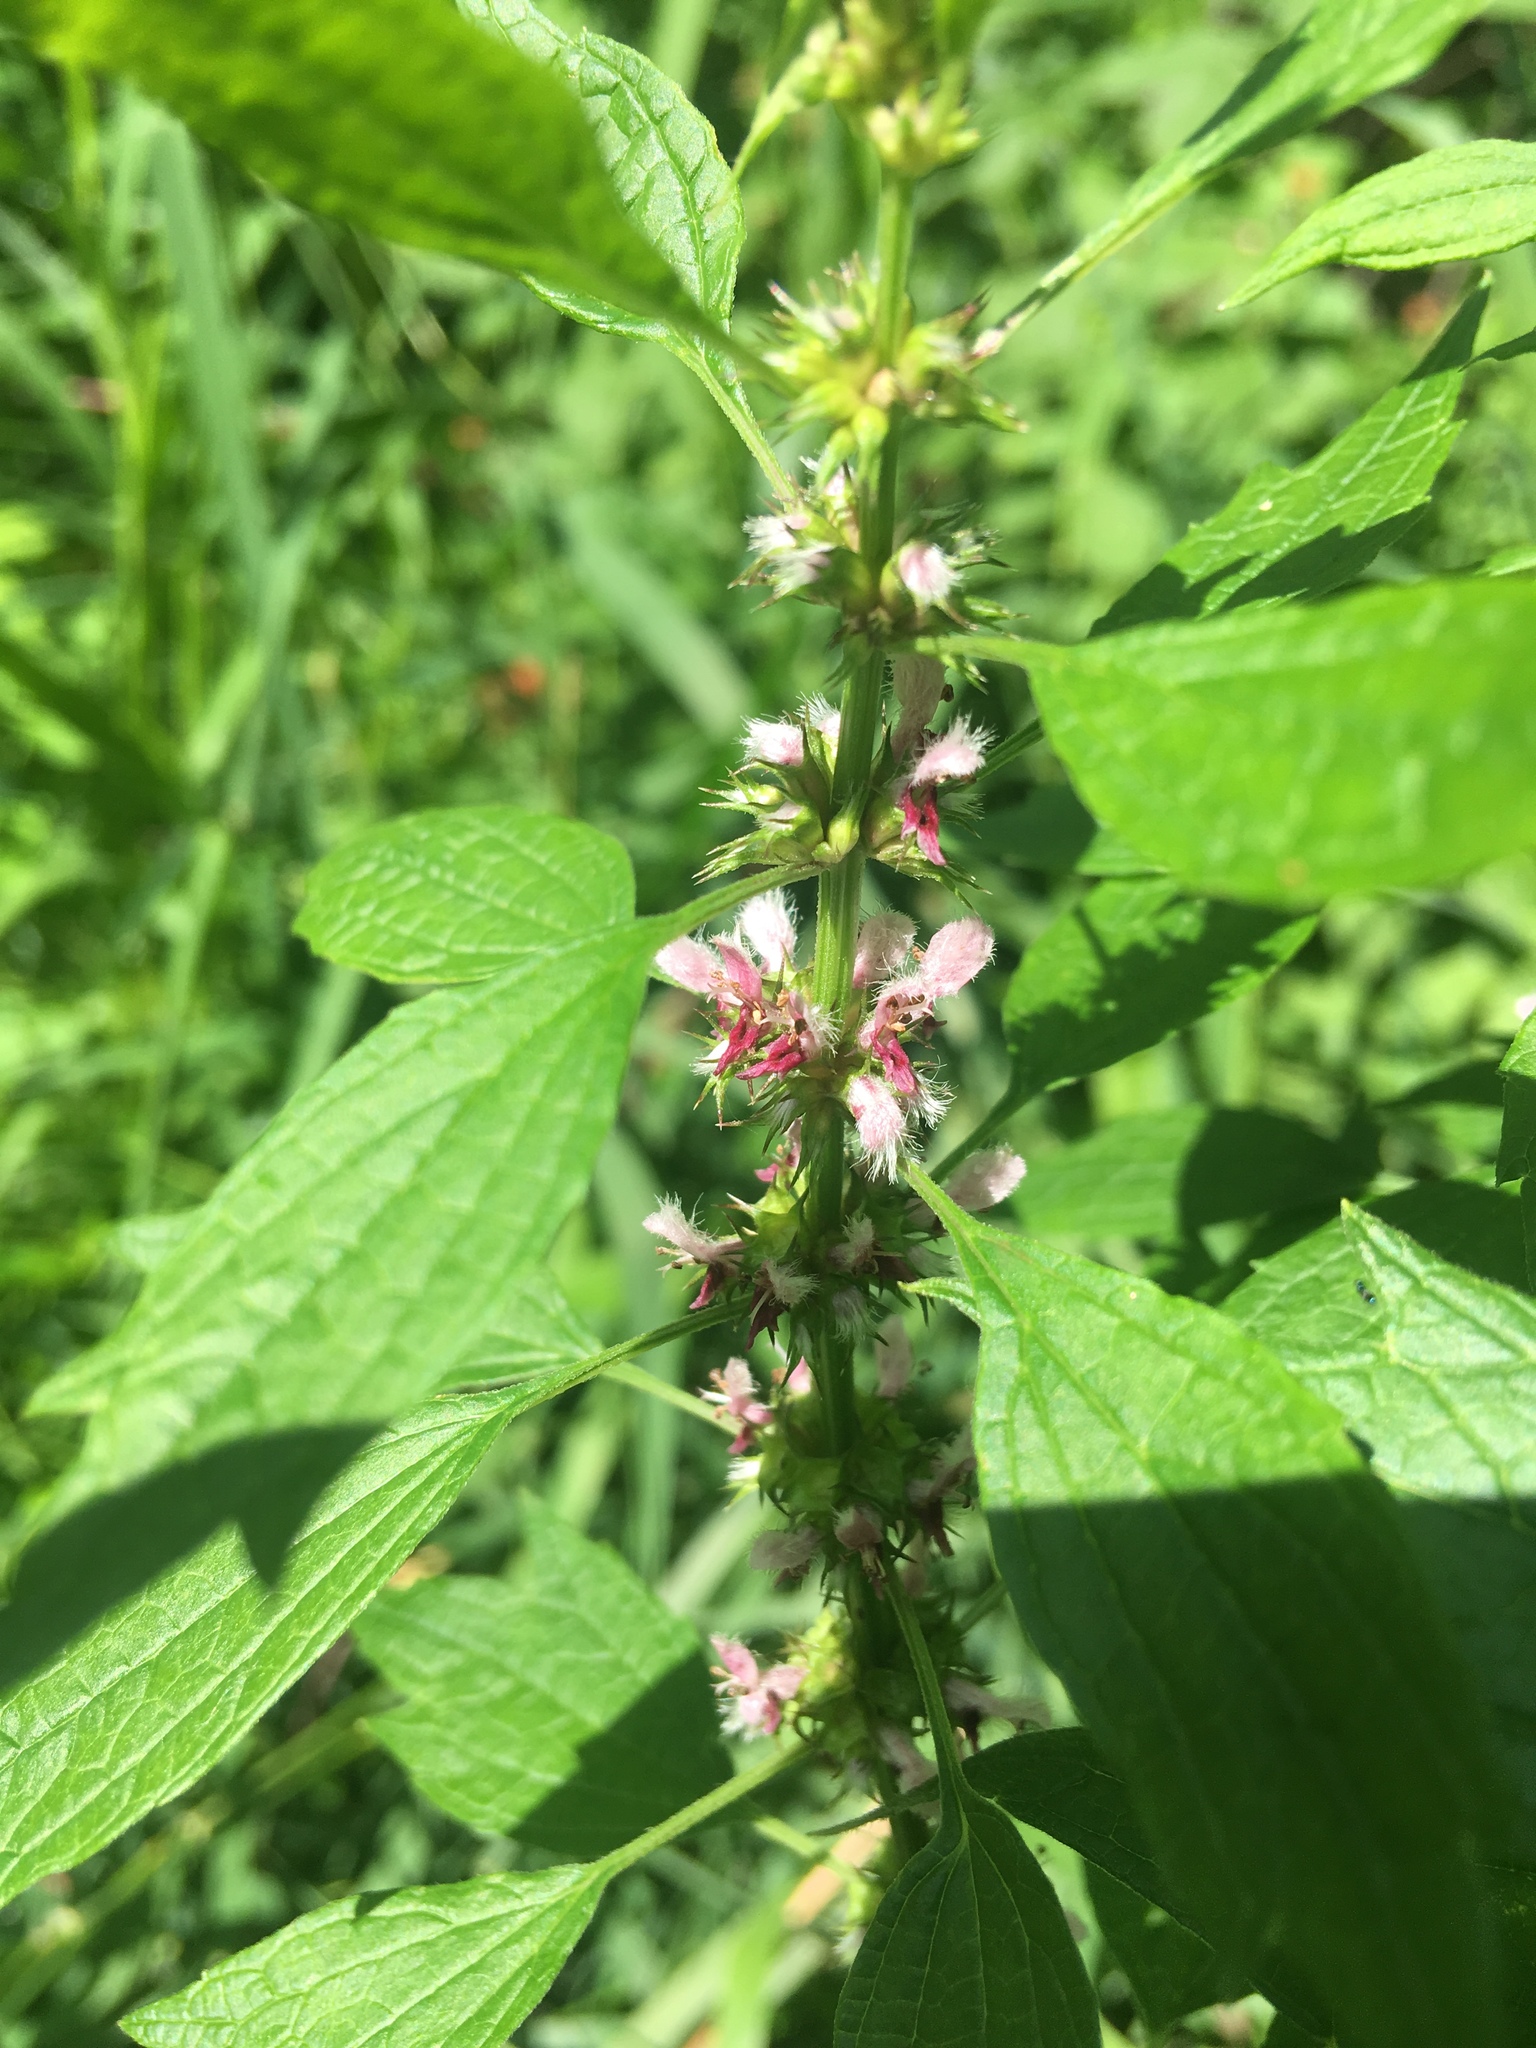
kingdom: Plantae
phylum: Tracheophyta
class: Magnoliopsida
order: Lamiales
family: Lamiaceae
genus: Leonurus
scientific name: Leonurus cardiaca
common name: Motherwort
